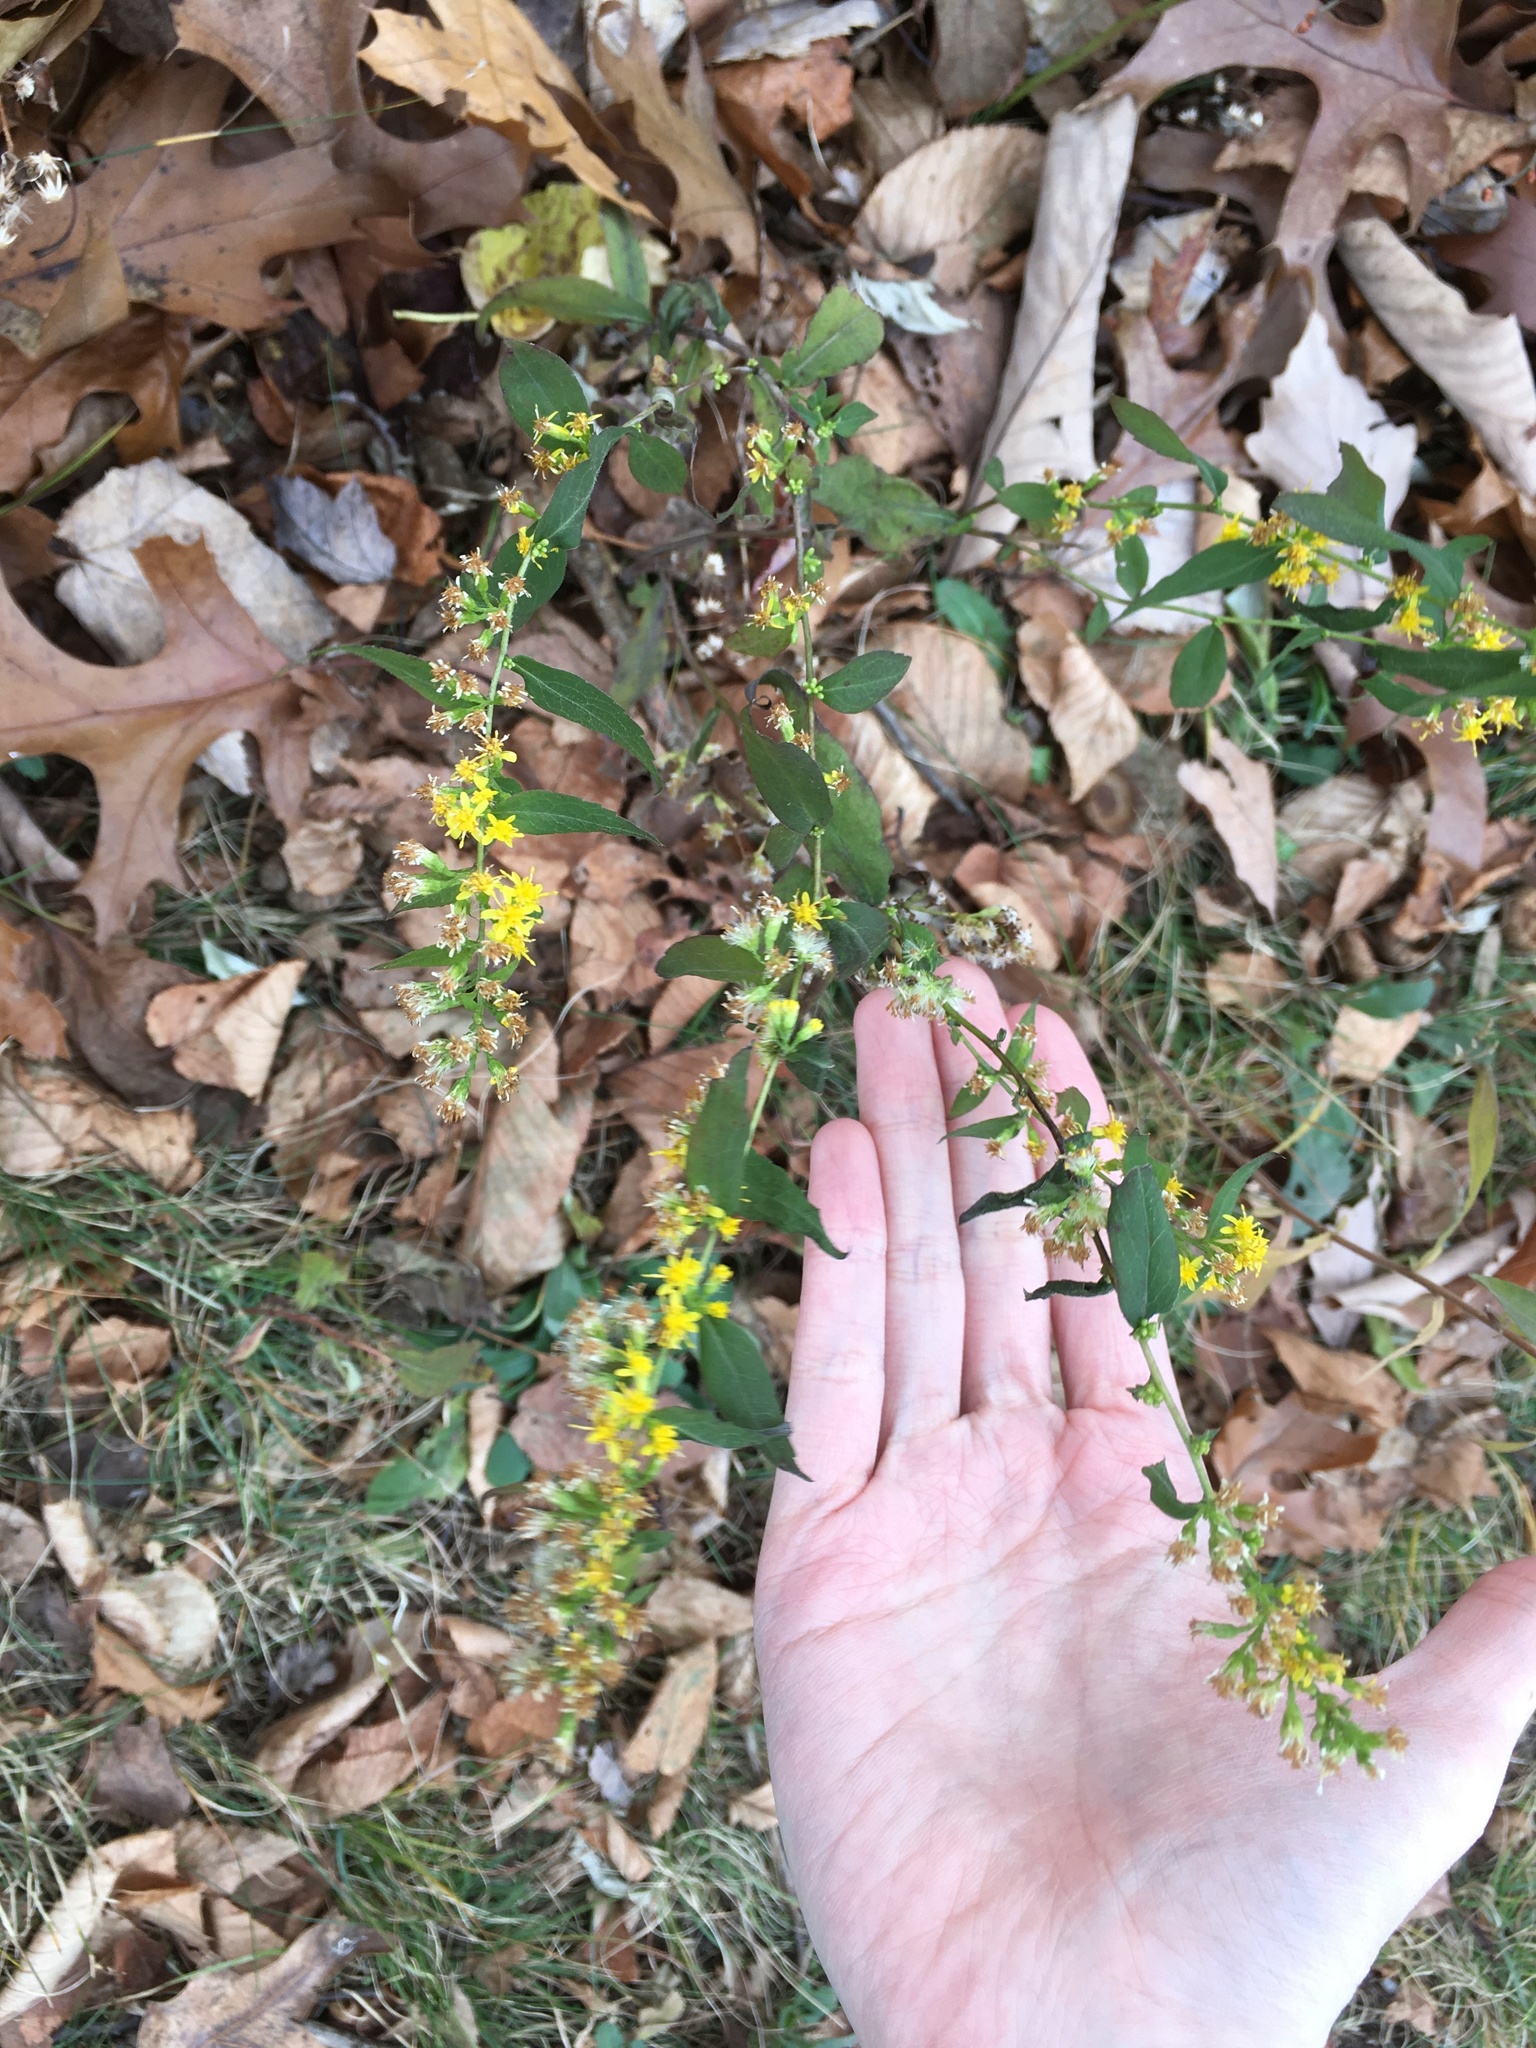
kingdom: Plantae
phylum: Tracheophyta
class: Magnoliopsida
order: Asterales
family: Asteraceae
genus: Solidago
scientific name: Solidago caesia
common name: Woodland goldenrod
